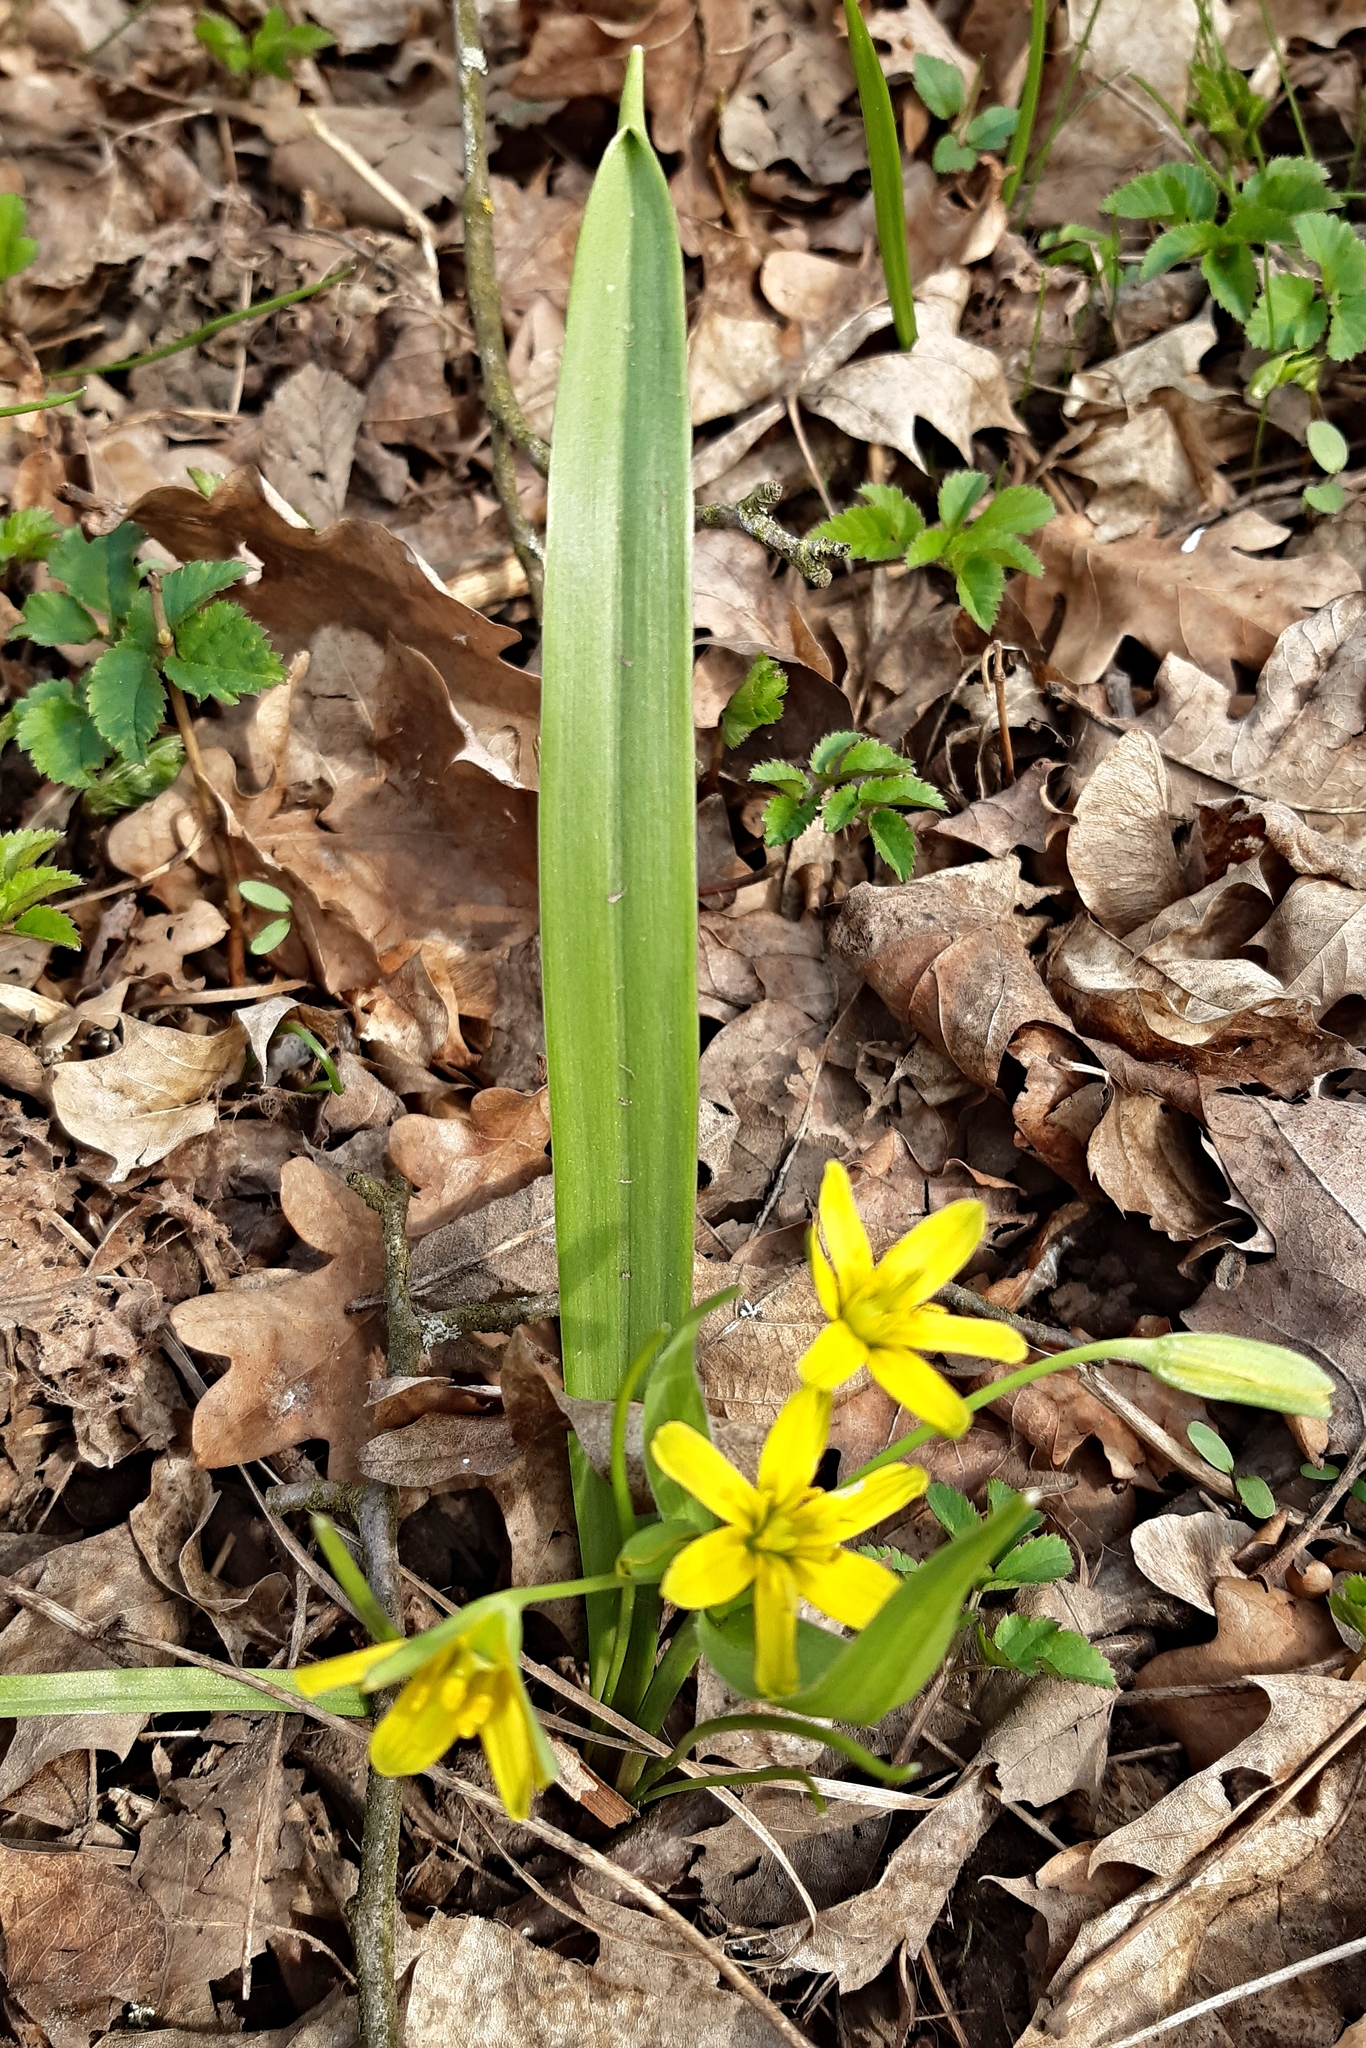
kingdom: Plantae
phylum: Tracheophyta
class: Liliopsida
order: Liliales
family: Liliaceae
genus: Gagea
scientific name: Gagea lutea
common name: Yellow star-of-bethlehem
